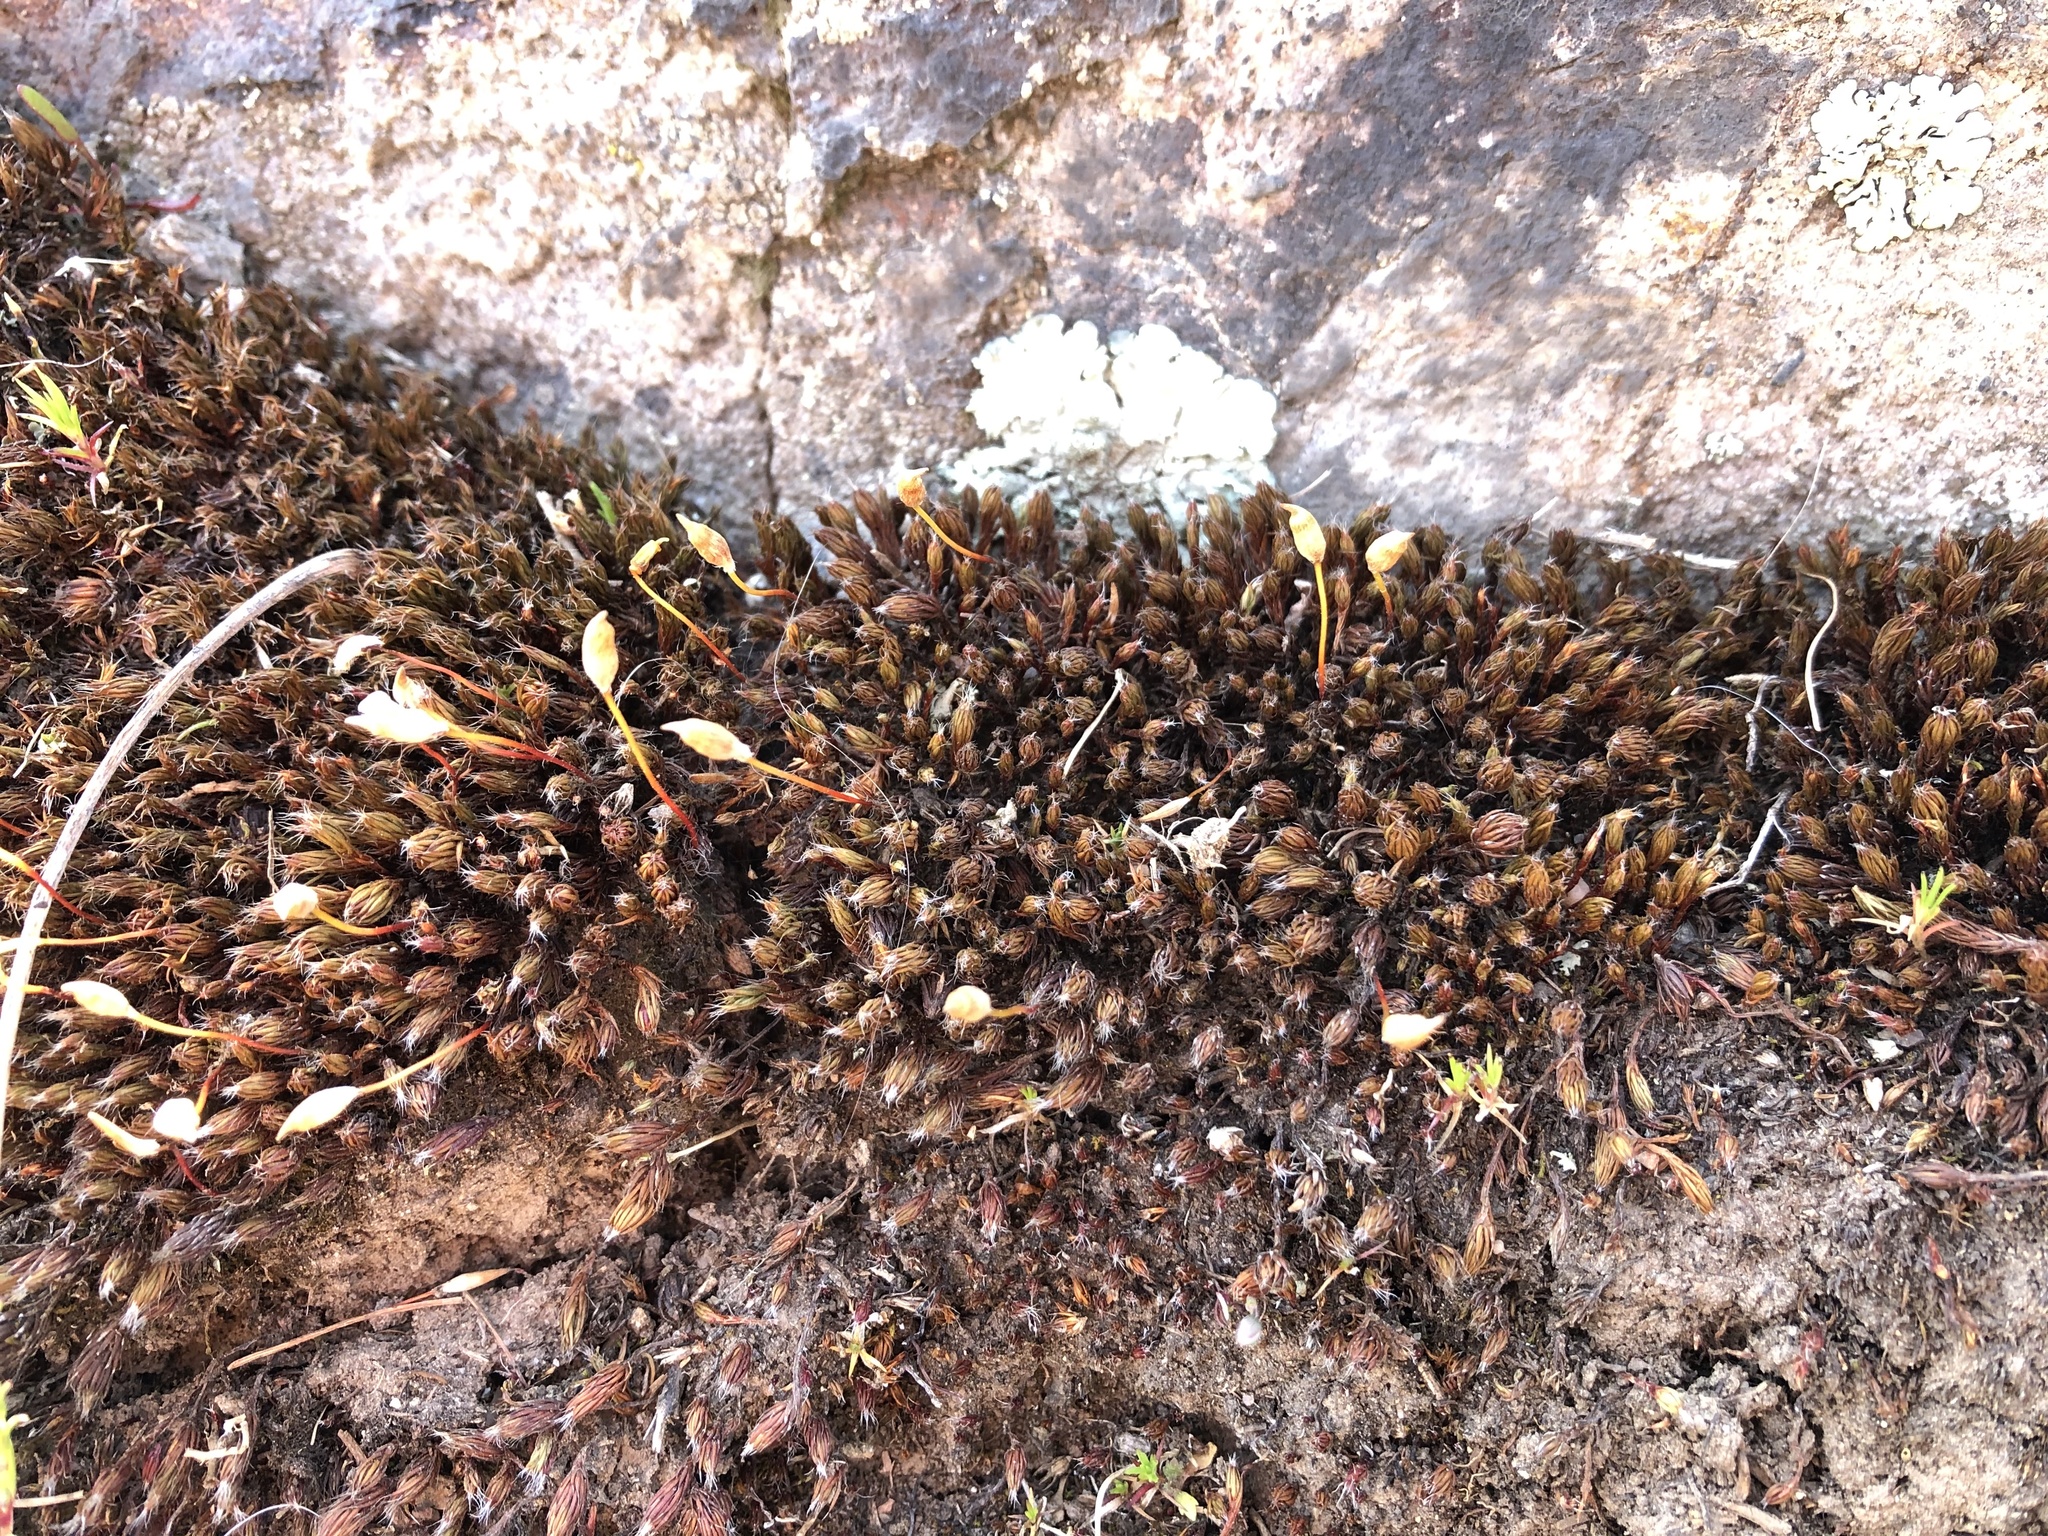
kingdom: Plantae
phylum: Bryophyta
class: Polytrichopsida
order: Polytrichales
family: Polytrichaceae
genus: Polytrichum
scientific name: Polytrichum piliferum
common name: Bristly haircap
